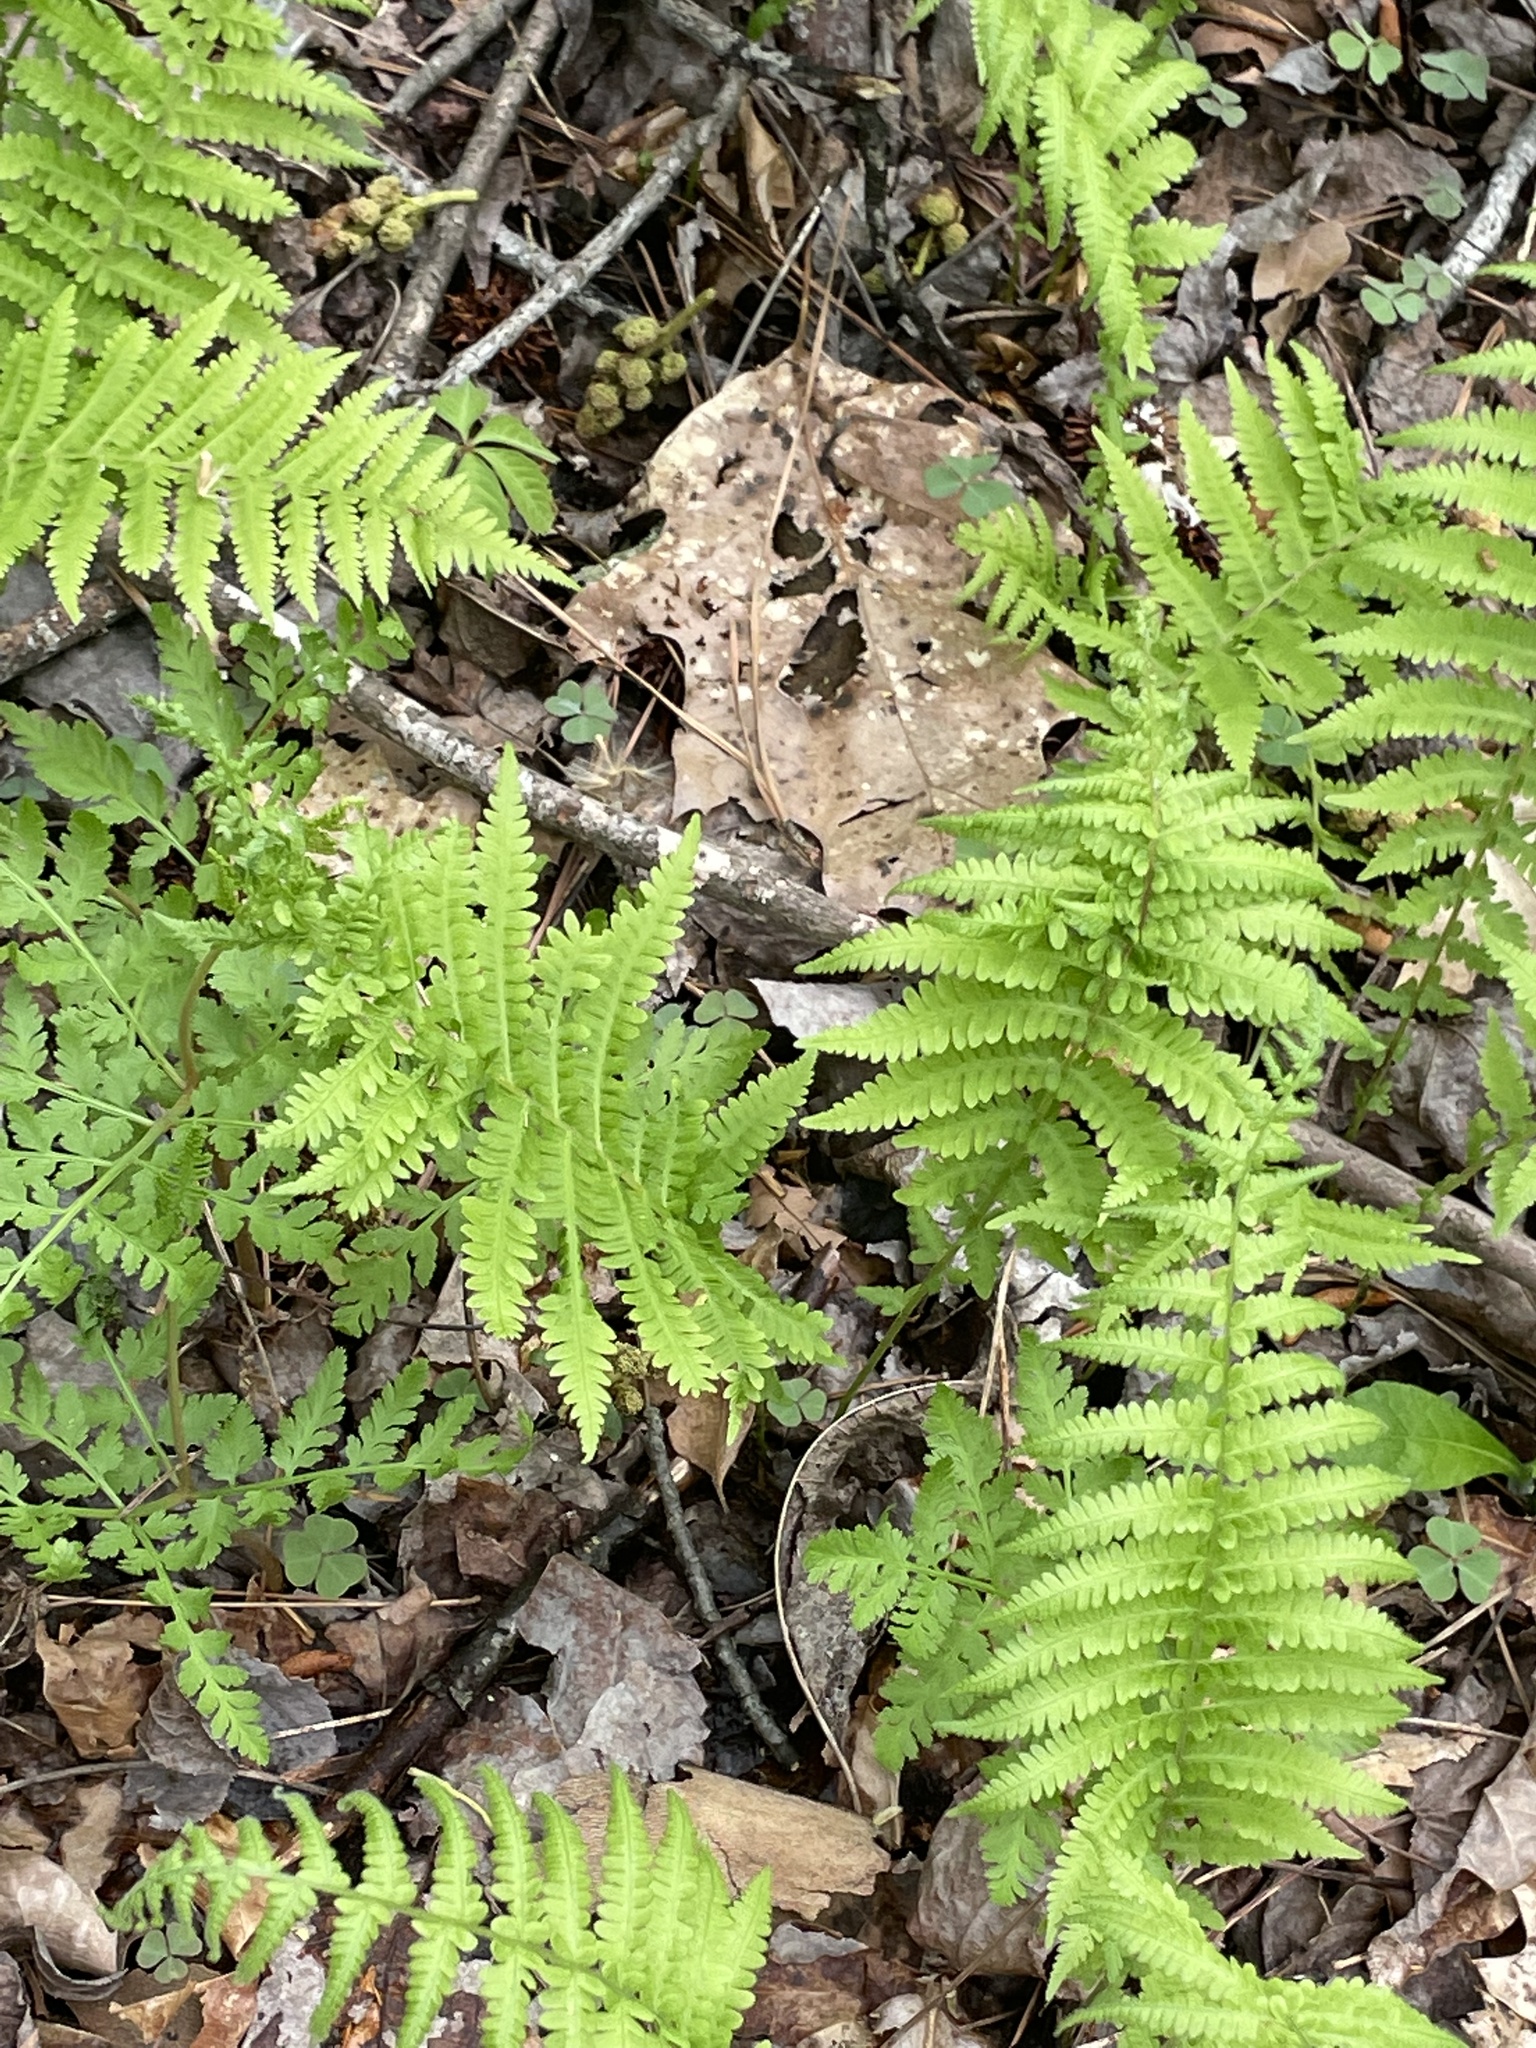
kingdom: Plantae
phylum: Tracheophyta
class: Polypodiopsida
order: Polypodiales
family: Thelypteridaceae
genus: Amauropelta
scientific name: Amauropelta noveboracensis
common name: New york fern
